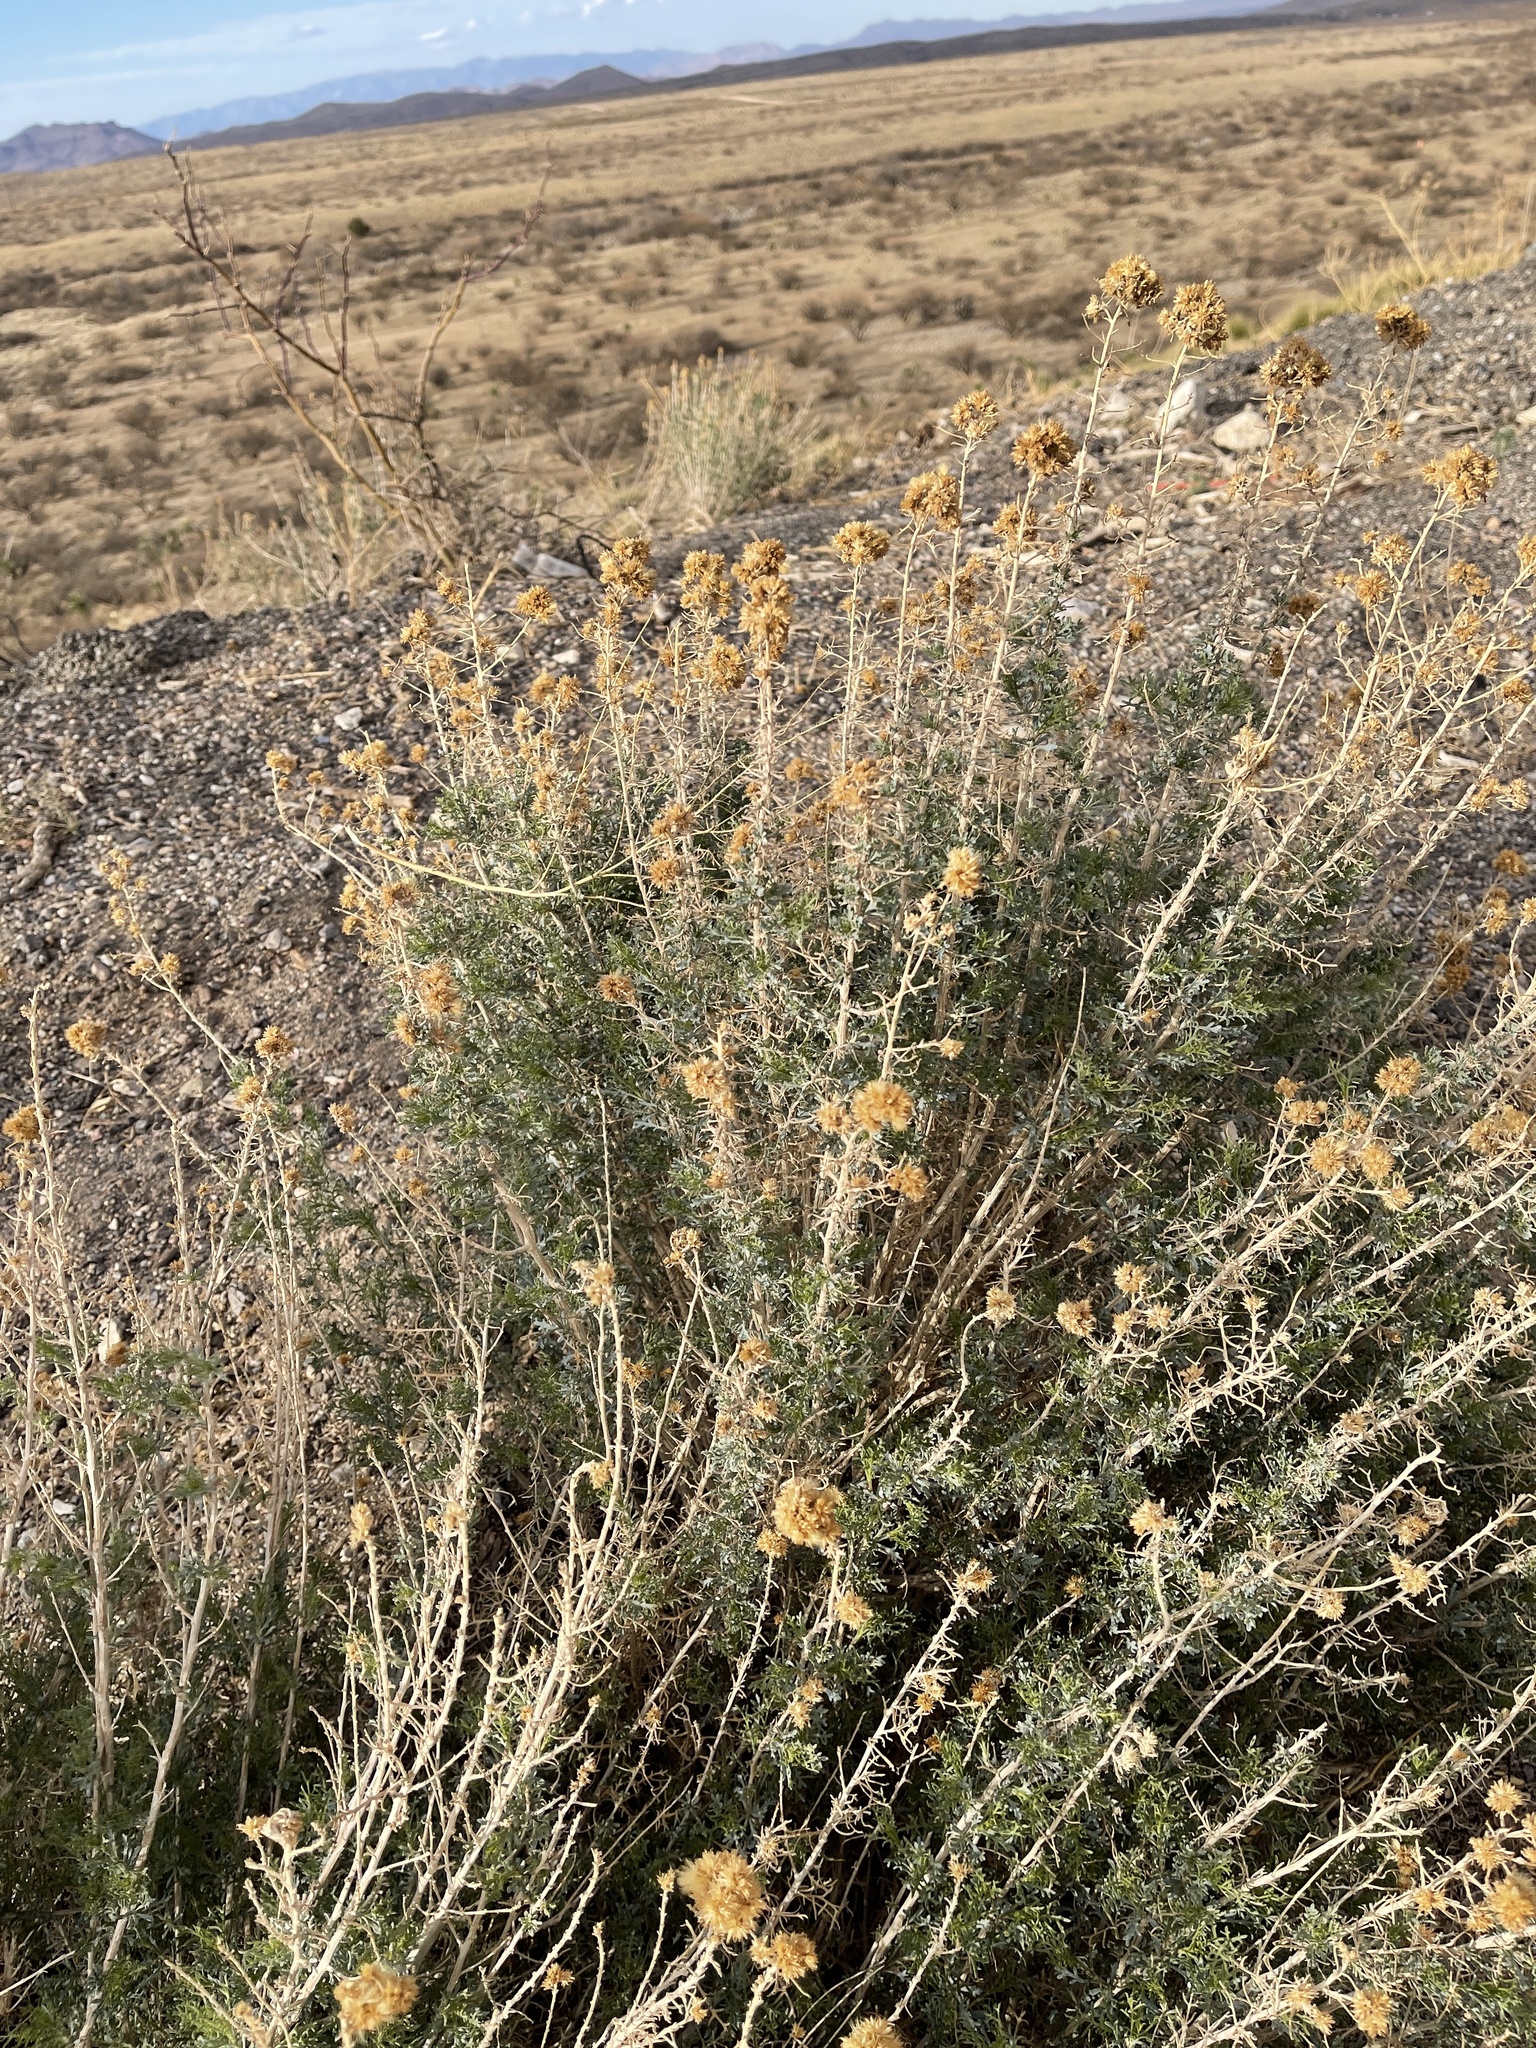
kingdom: Plantae
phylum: Tracheophyta
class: Magnoliopsida
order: Asterales
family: Asteraceae
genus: Isocoma
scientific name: Isocoma tenuisecta
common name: Burroweed
